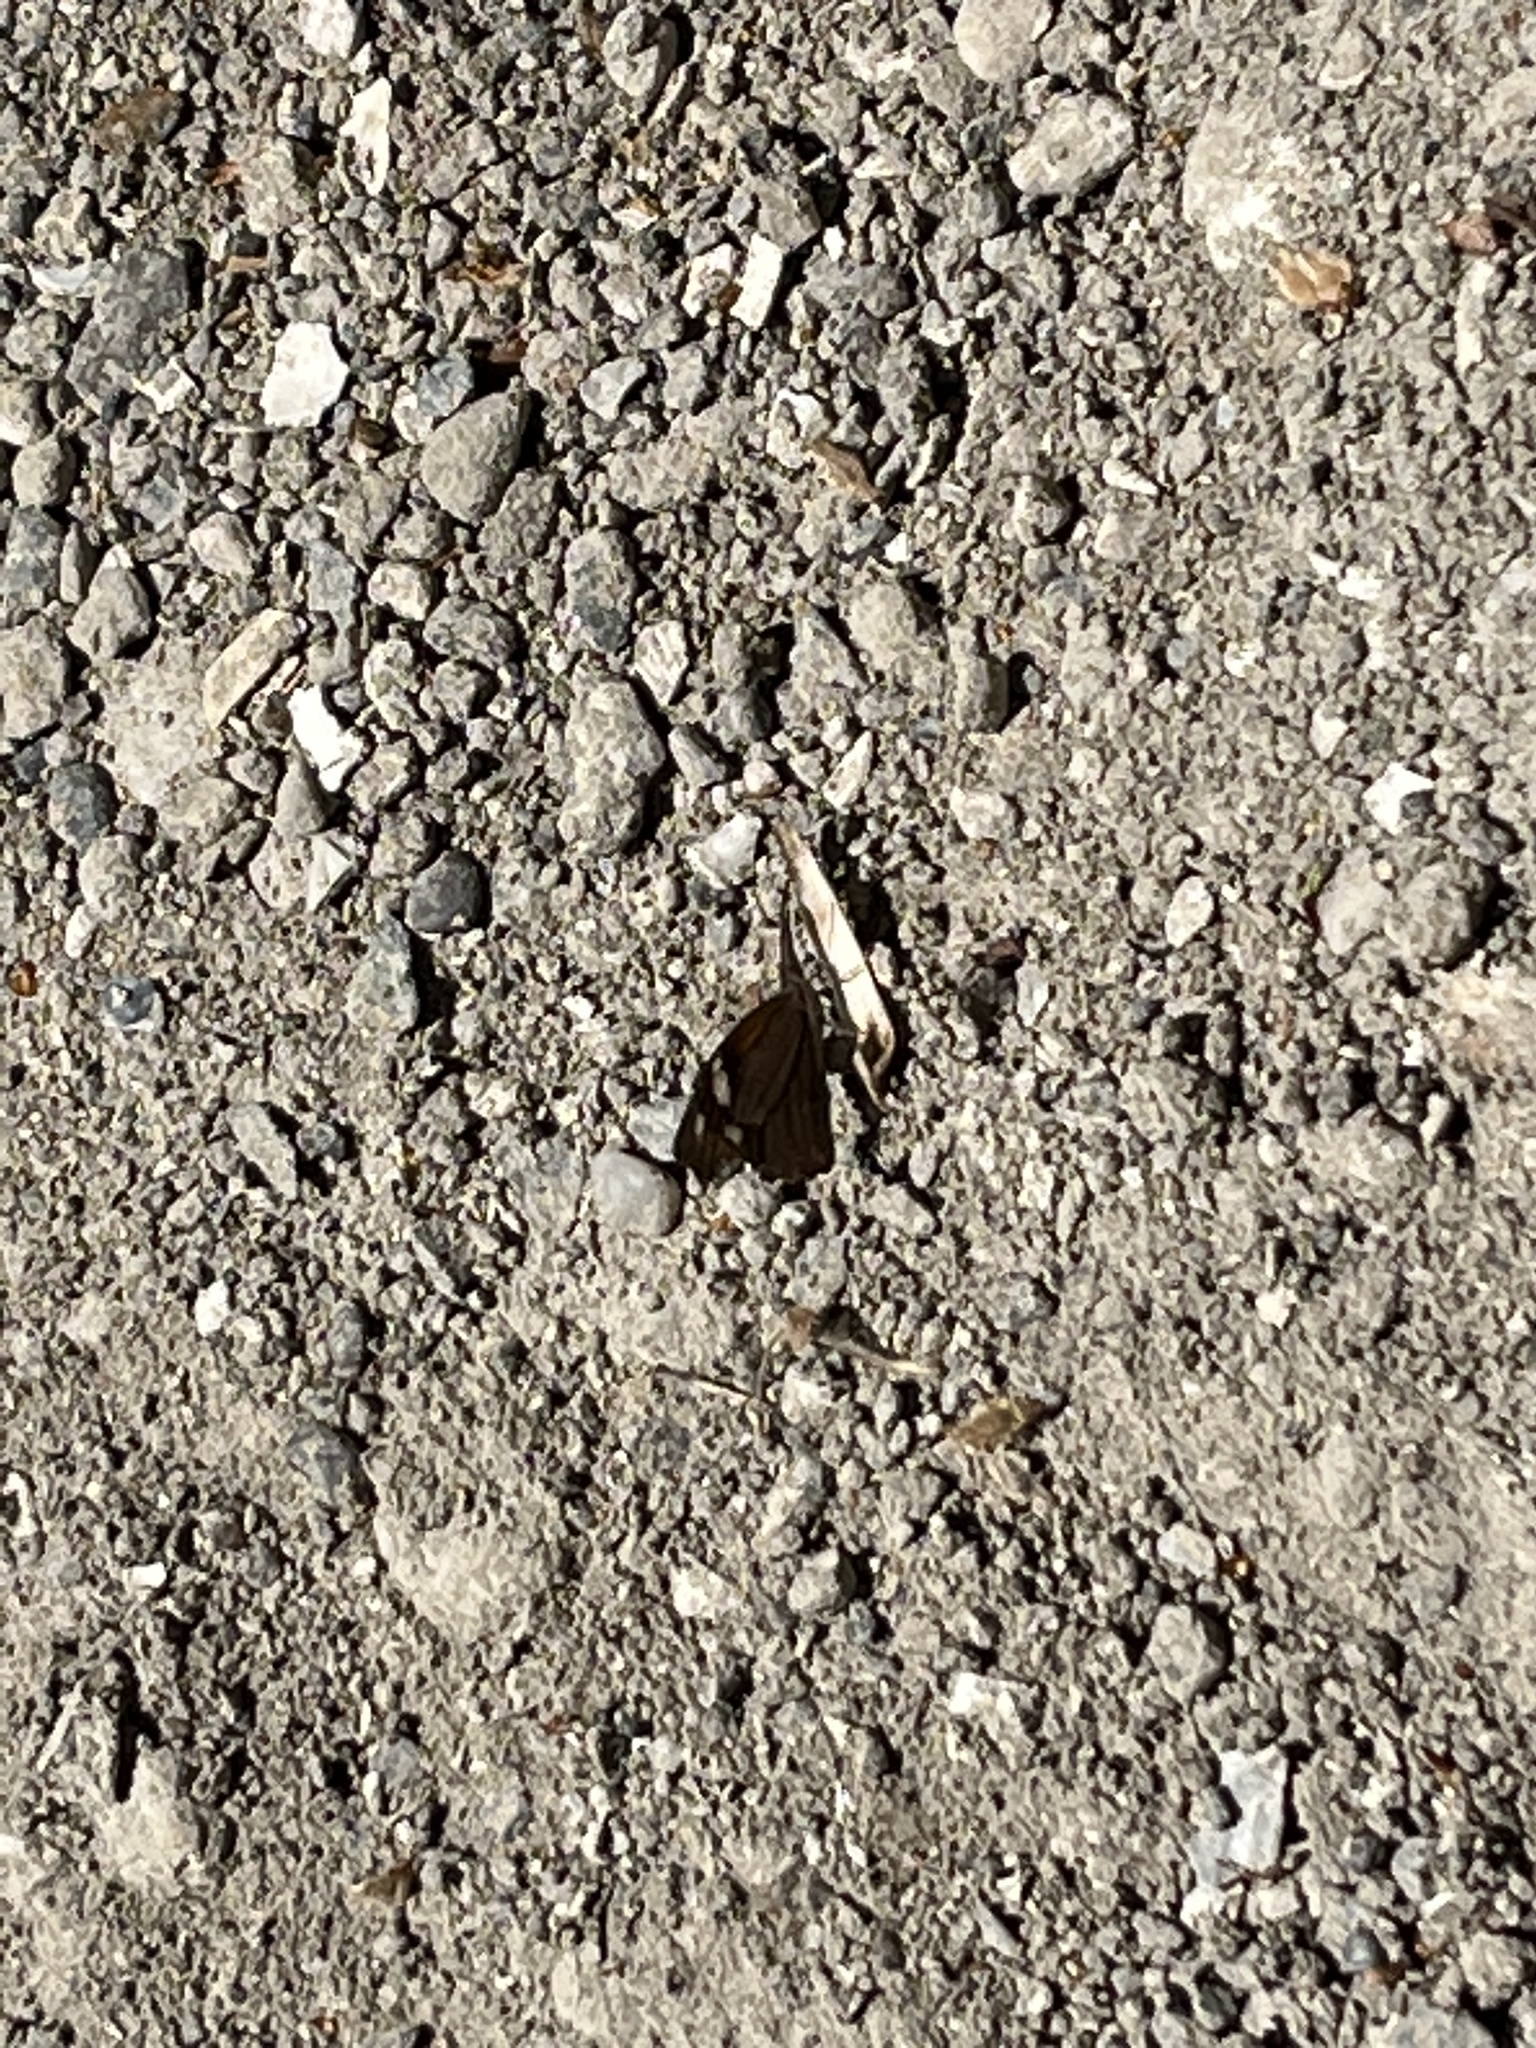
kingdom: Animalia
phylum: Arthropoda
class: Insecta
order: Lepidoptera
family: Nymphalidae
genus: Libytheana
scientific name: Libytheana carinenta
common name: American snout
